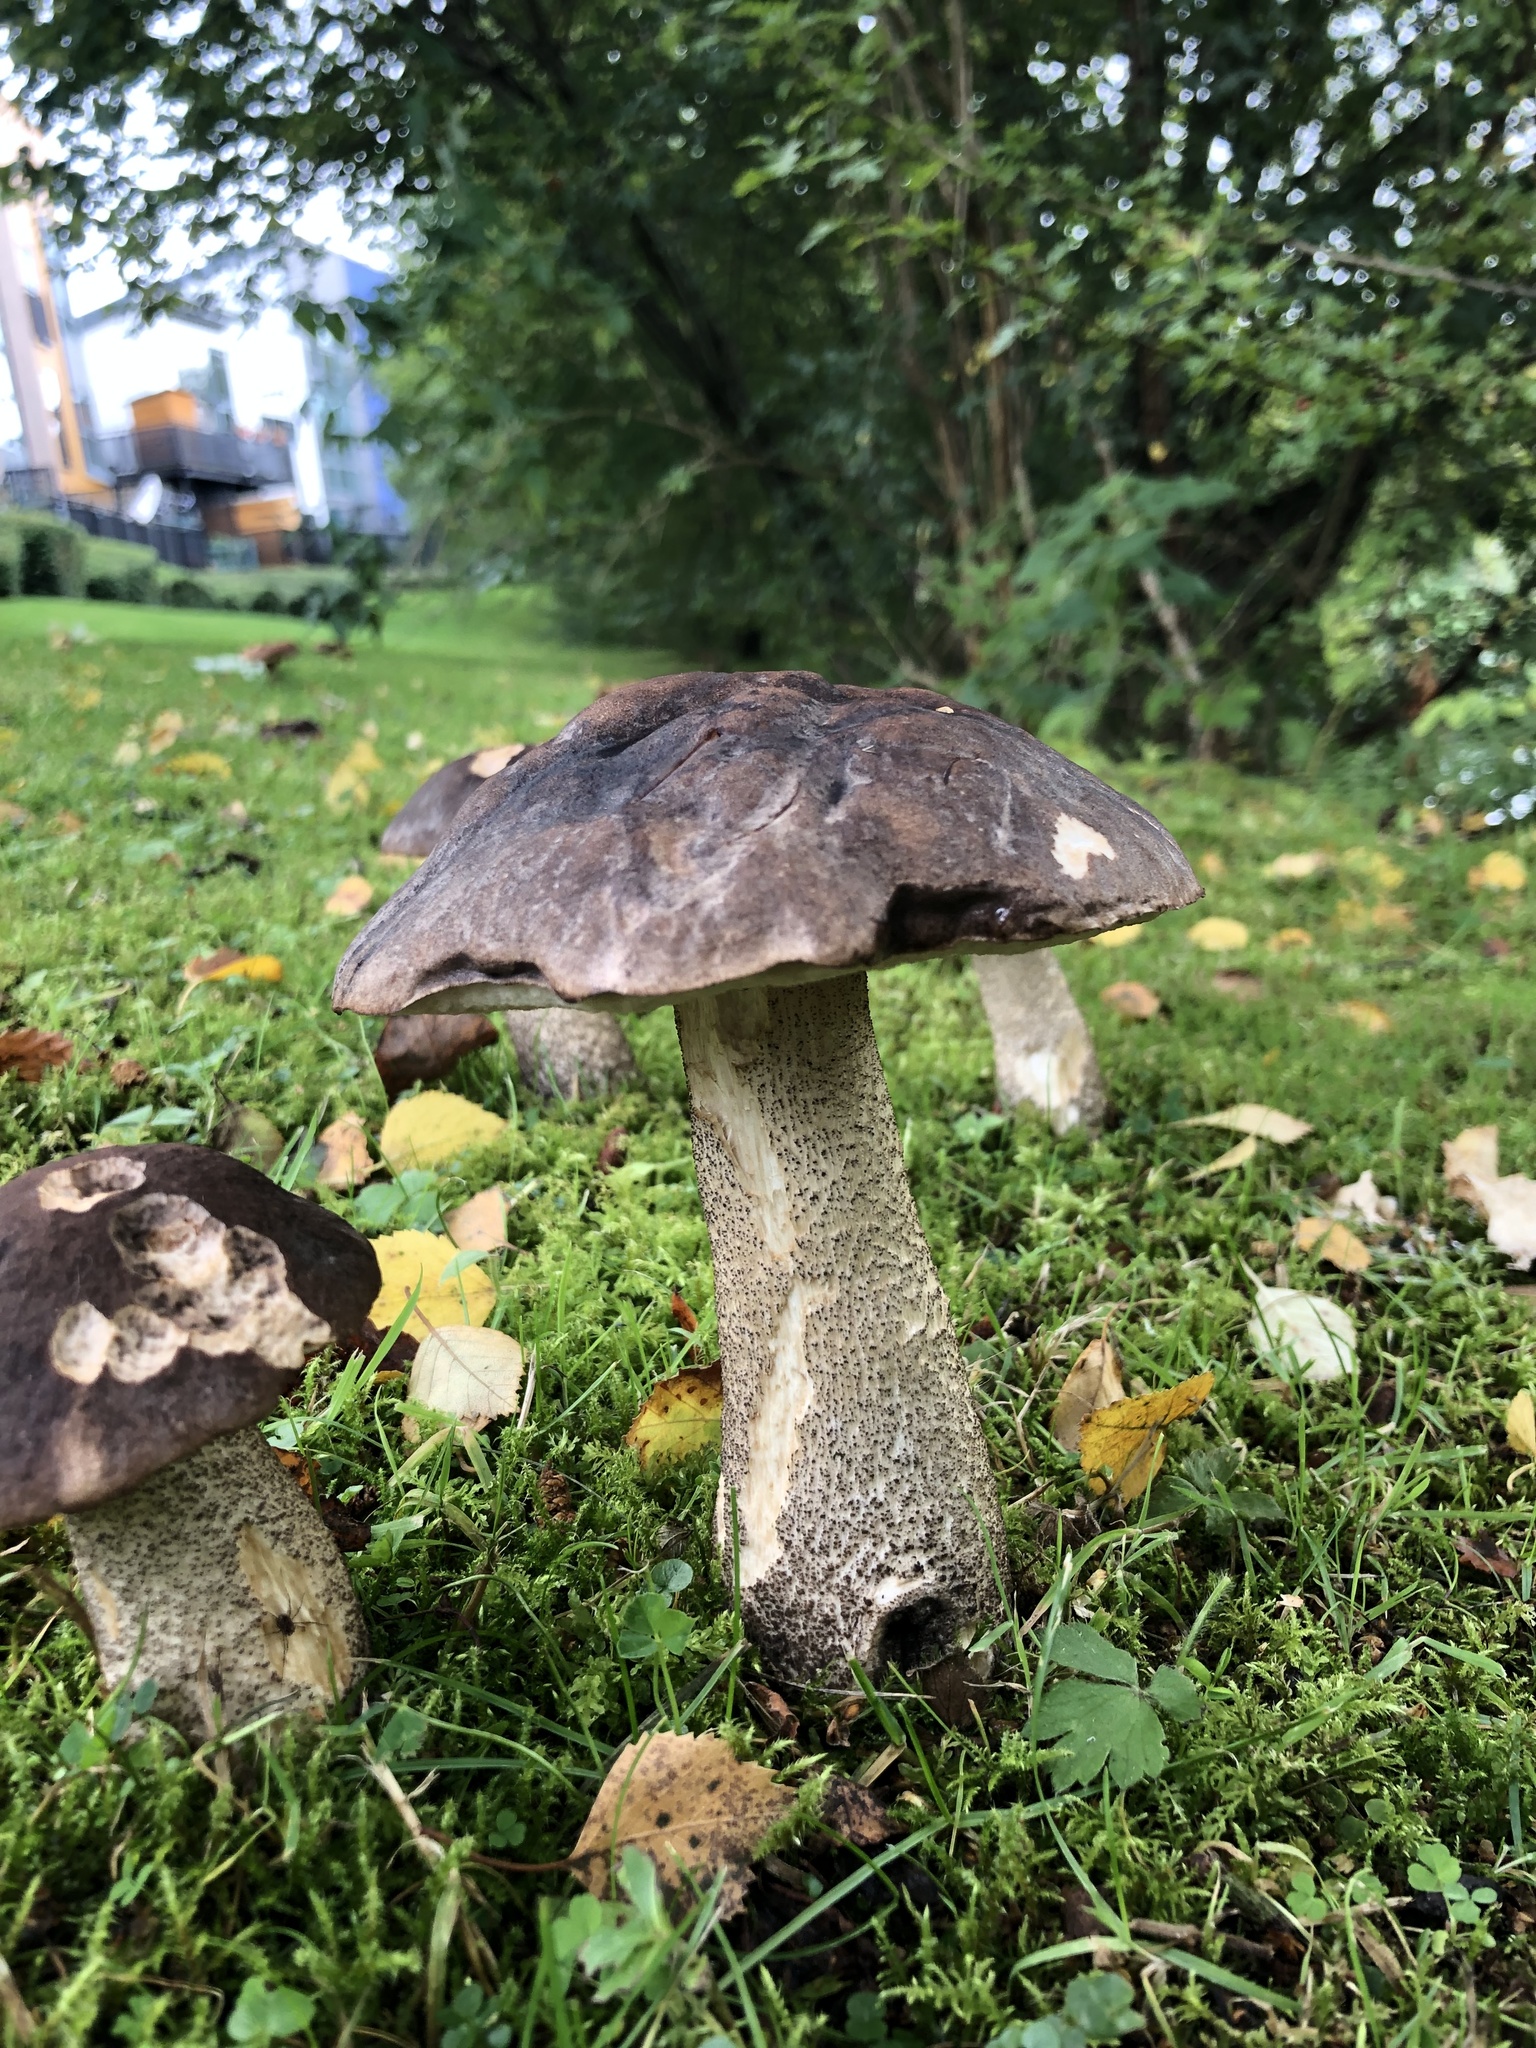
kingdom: Fungi
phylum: Basidiomycota
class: Agaricomycetes
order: Boletales
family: Boletaceae
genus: Leccinum
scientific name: Leccinum variicolor
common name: Mottled bolete
